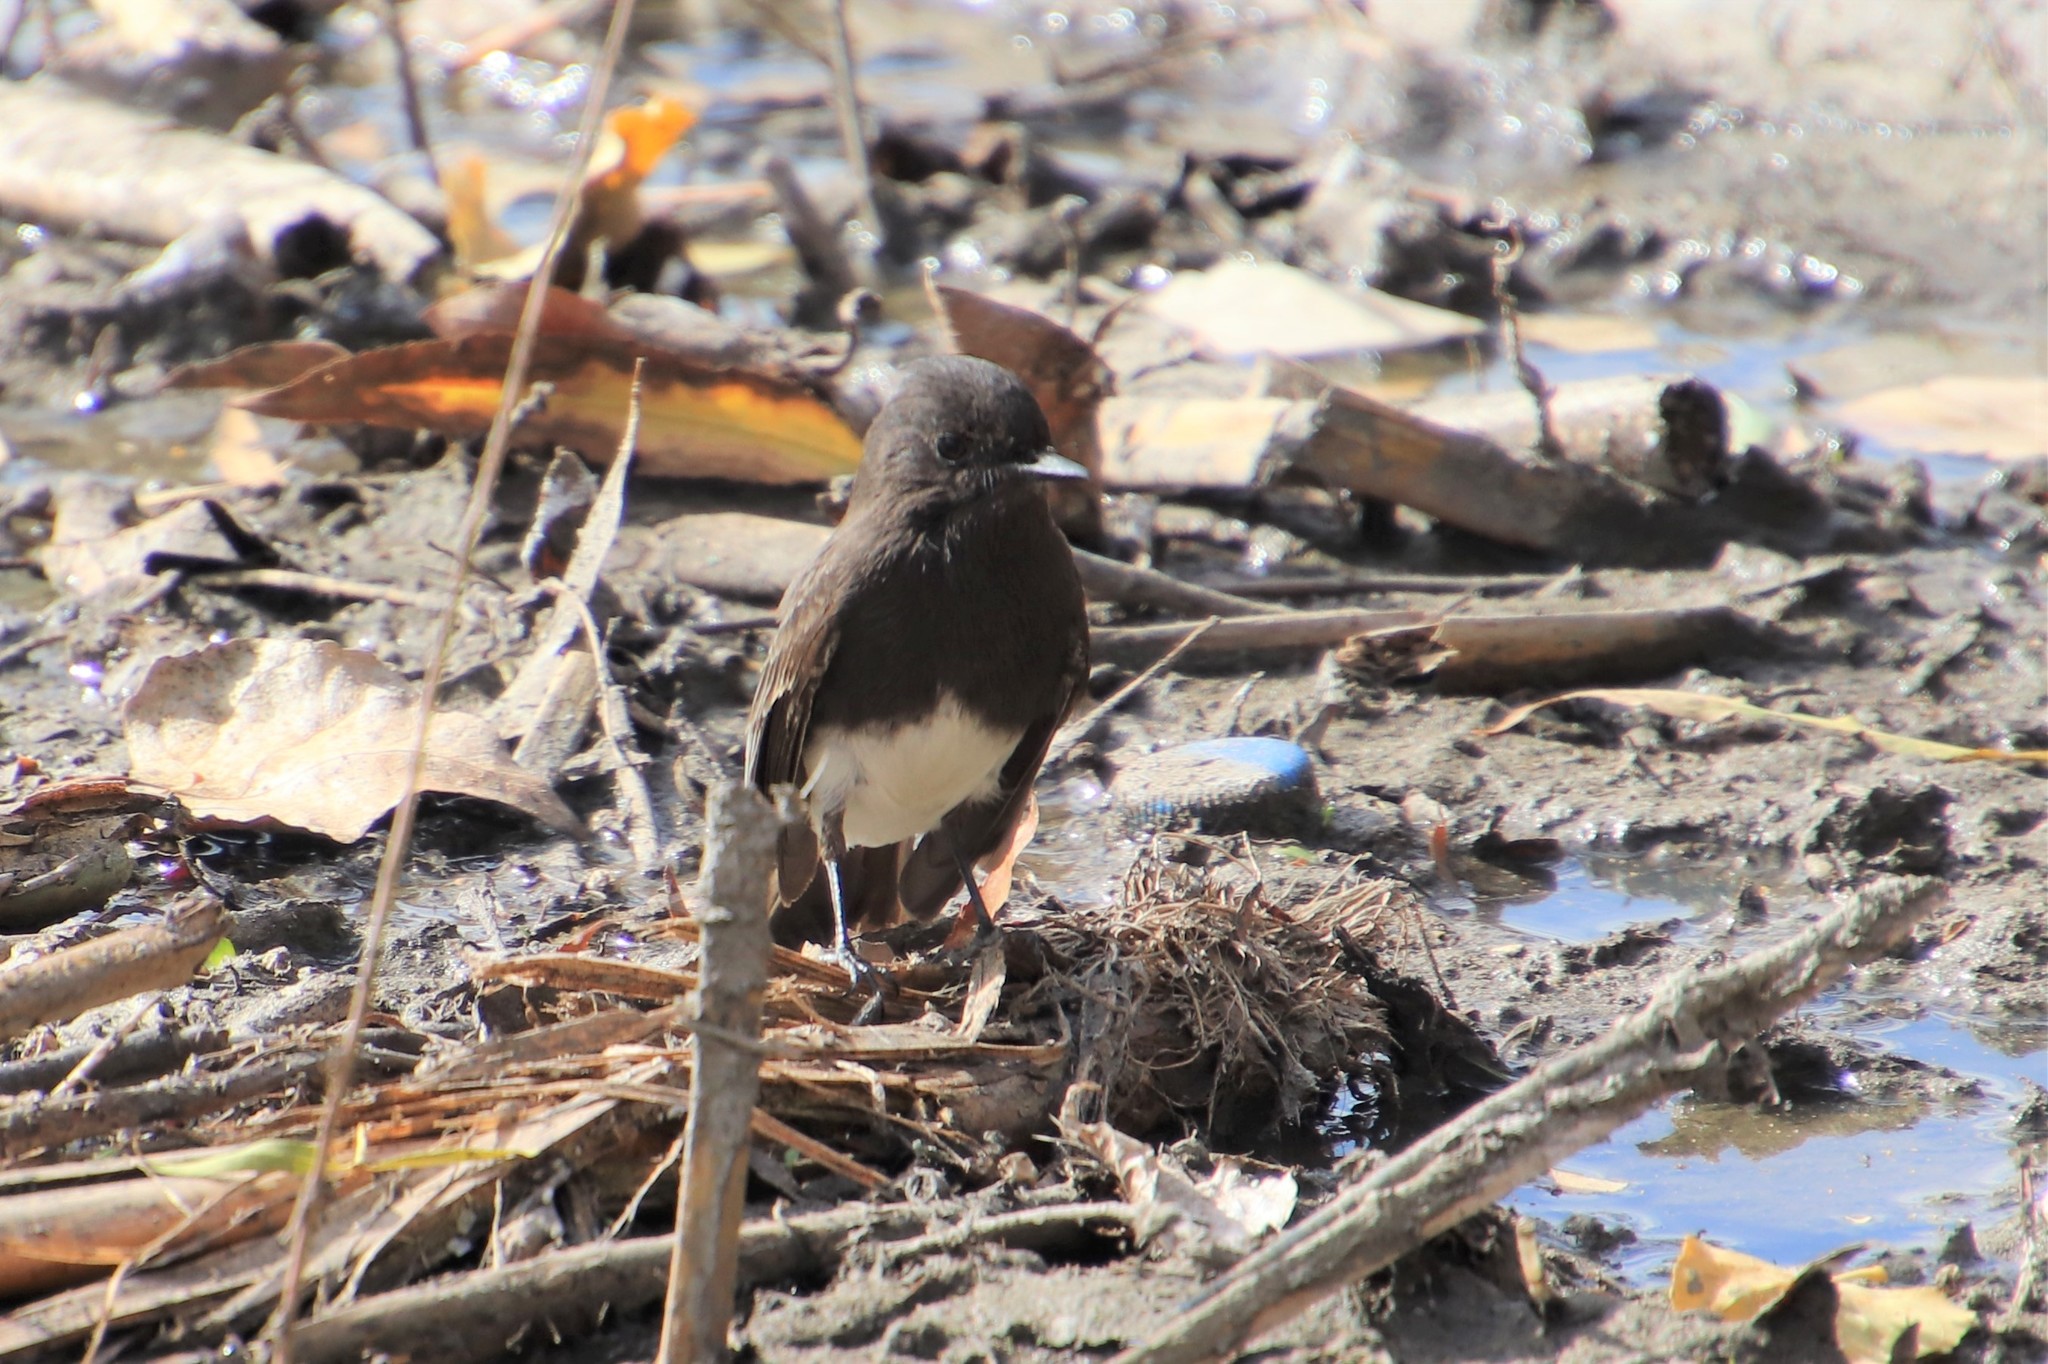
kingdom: Animalia
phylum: Chordata
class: Aves
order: Passeriformes
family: Tyrannidae
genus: Sayornis
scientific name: Sayornis nigricans
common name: Black phoebe
